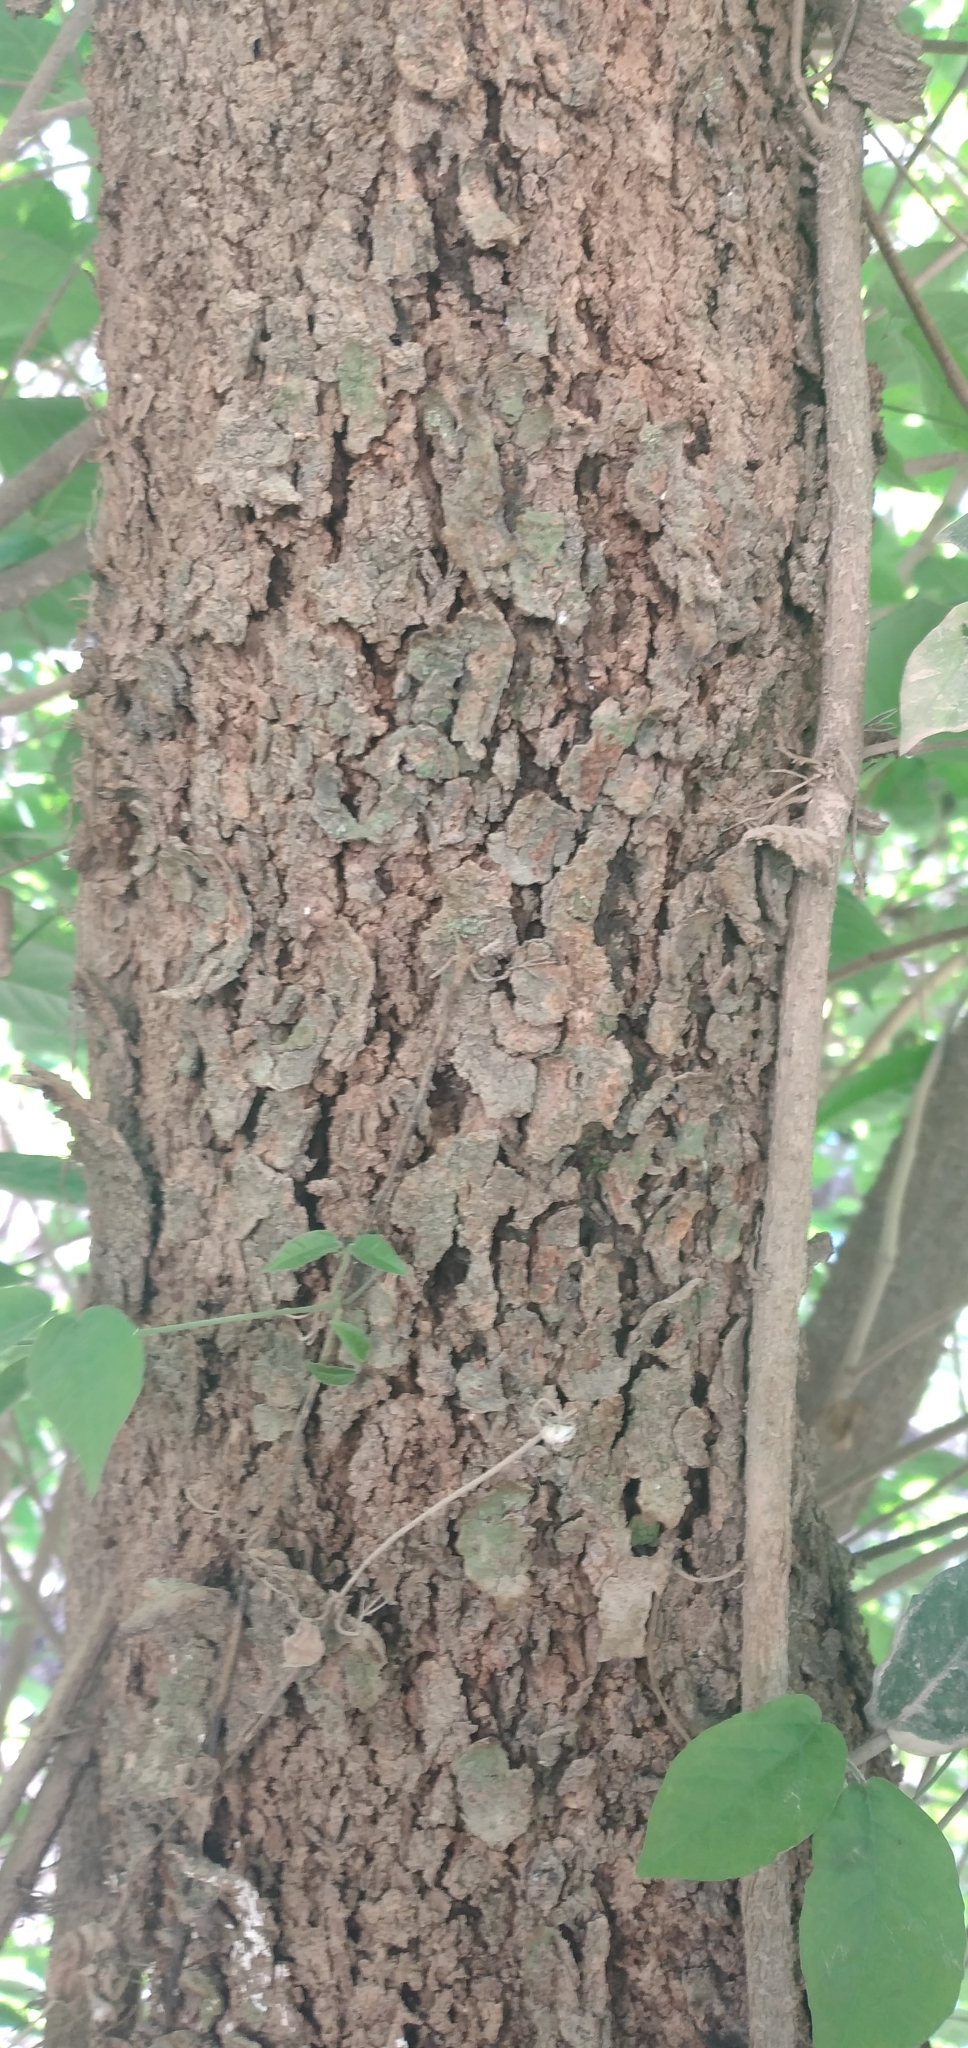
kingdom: Plantae
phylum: Tracheophyta
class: Magnoliopsida
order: Malpighiales
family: Euphorbiaceae
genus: Sebastiania
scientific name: Sebastiania brasiliensis
